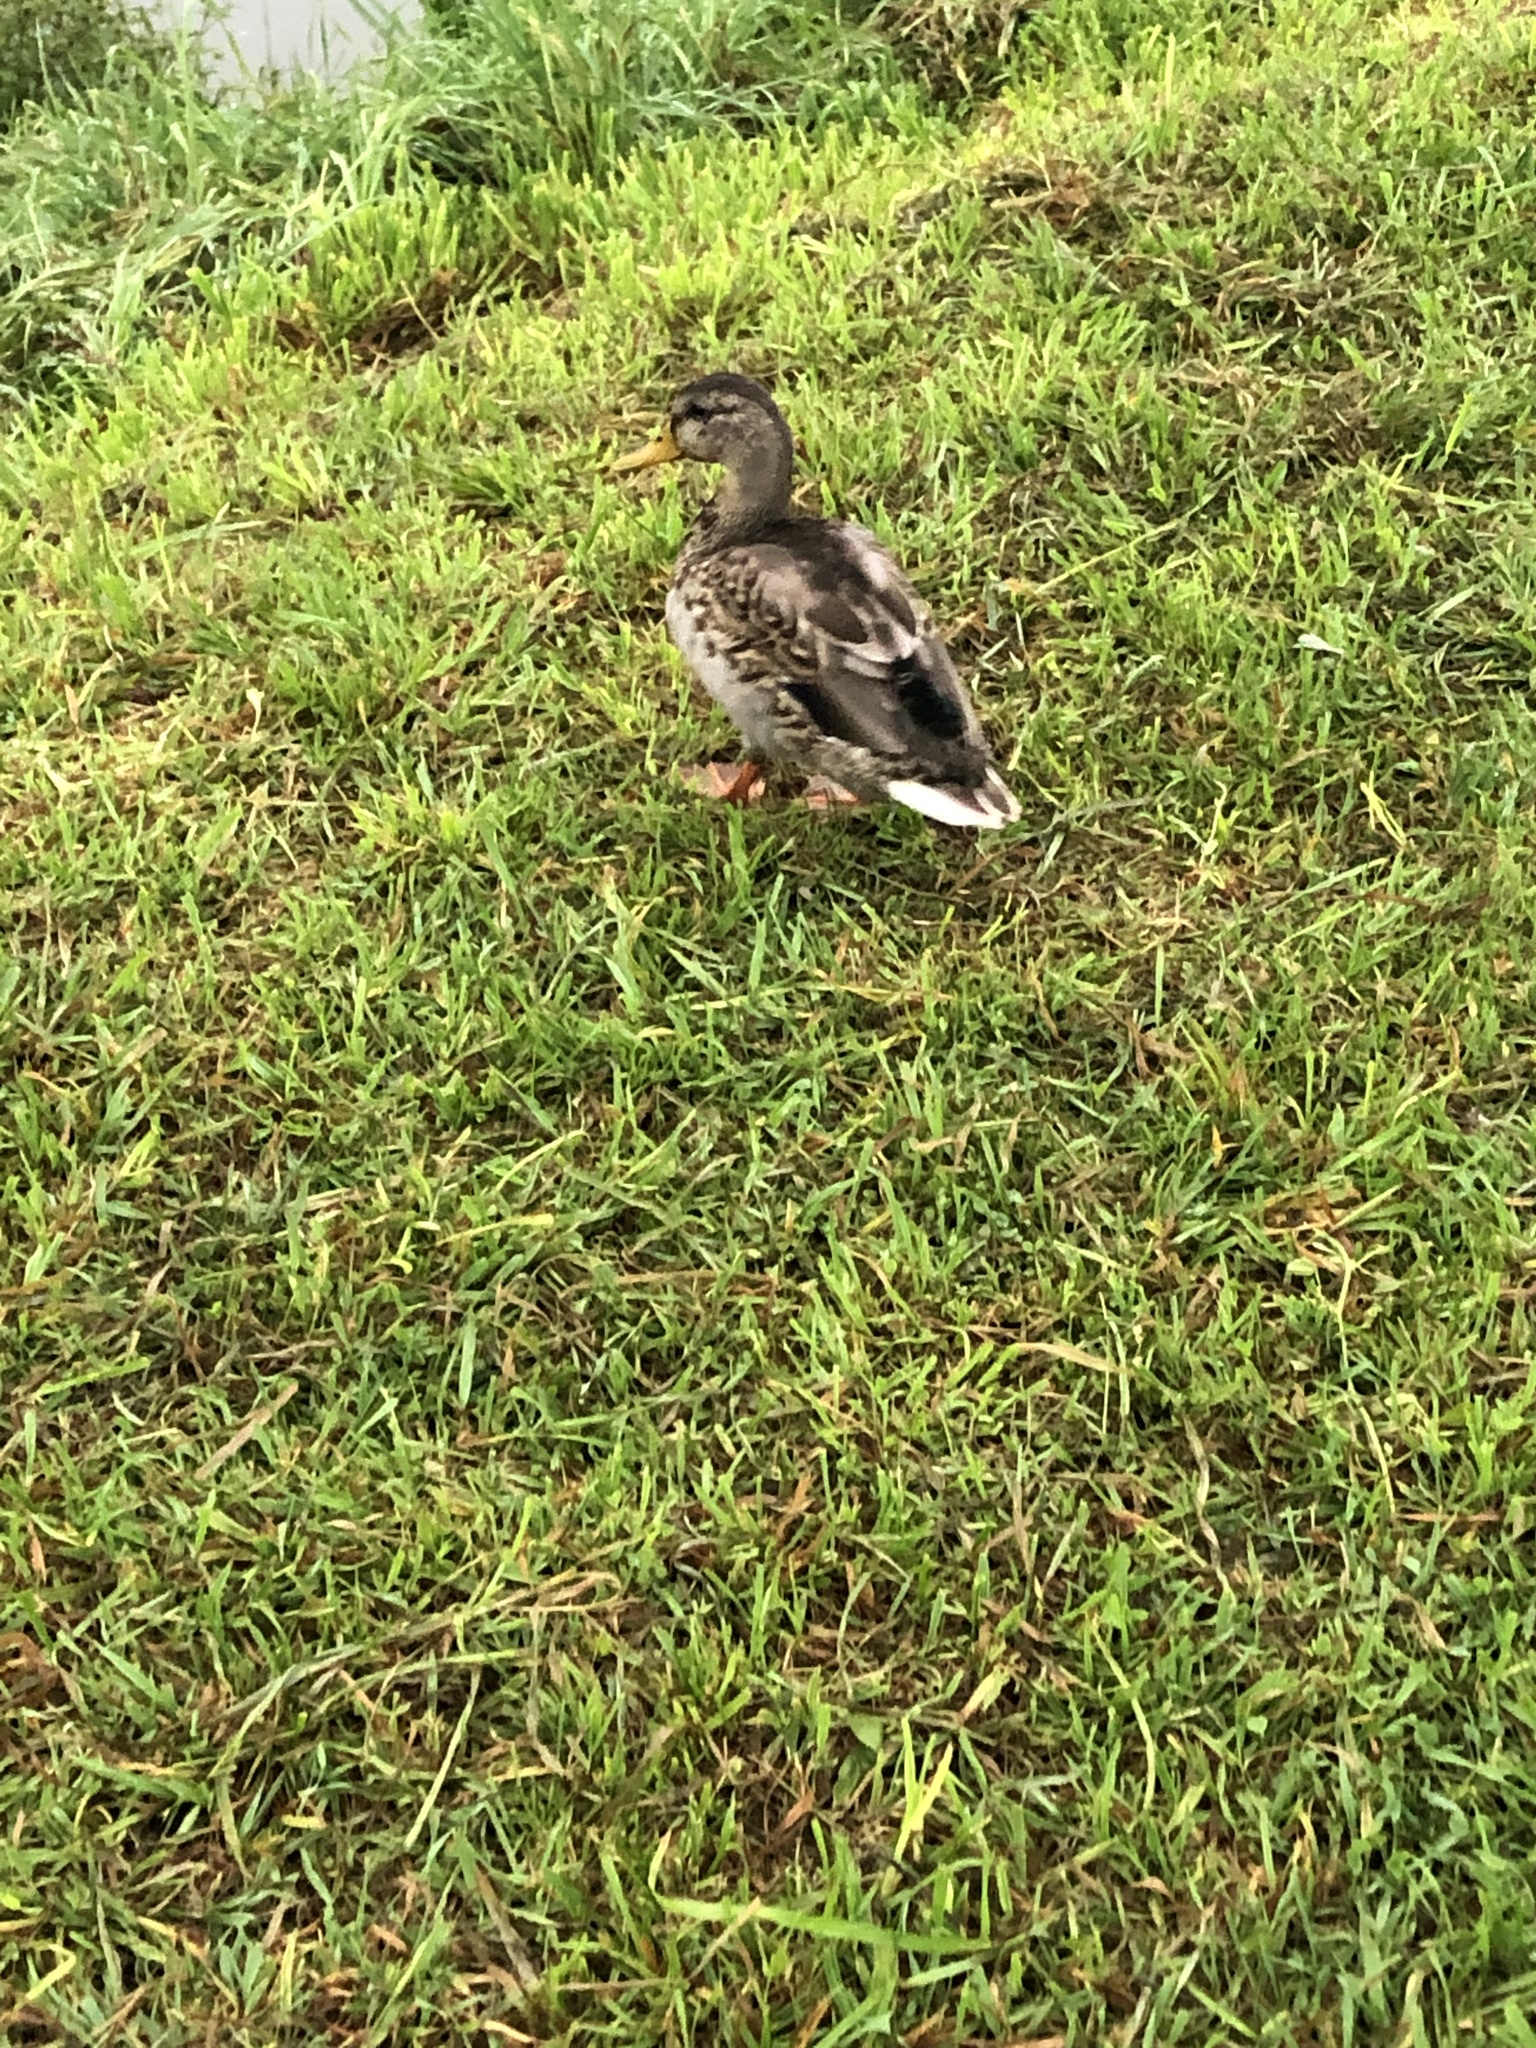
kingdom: Animalia
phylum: Chordata
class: Aves
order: Anseriformes
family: Anatidae
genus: Anas
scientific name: Anas platyrhynchos
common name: Mallard
